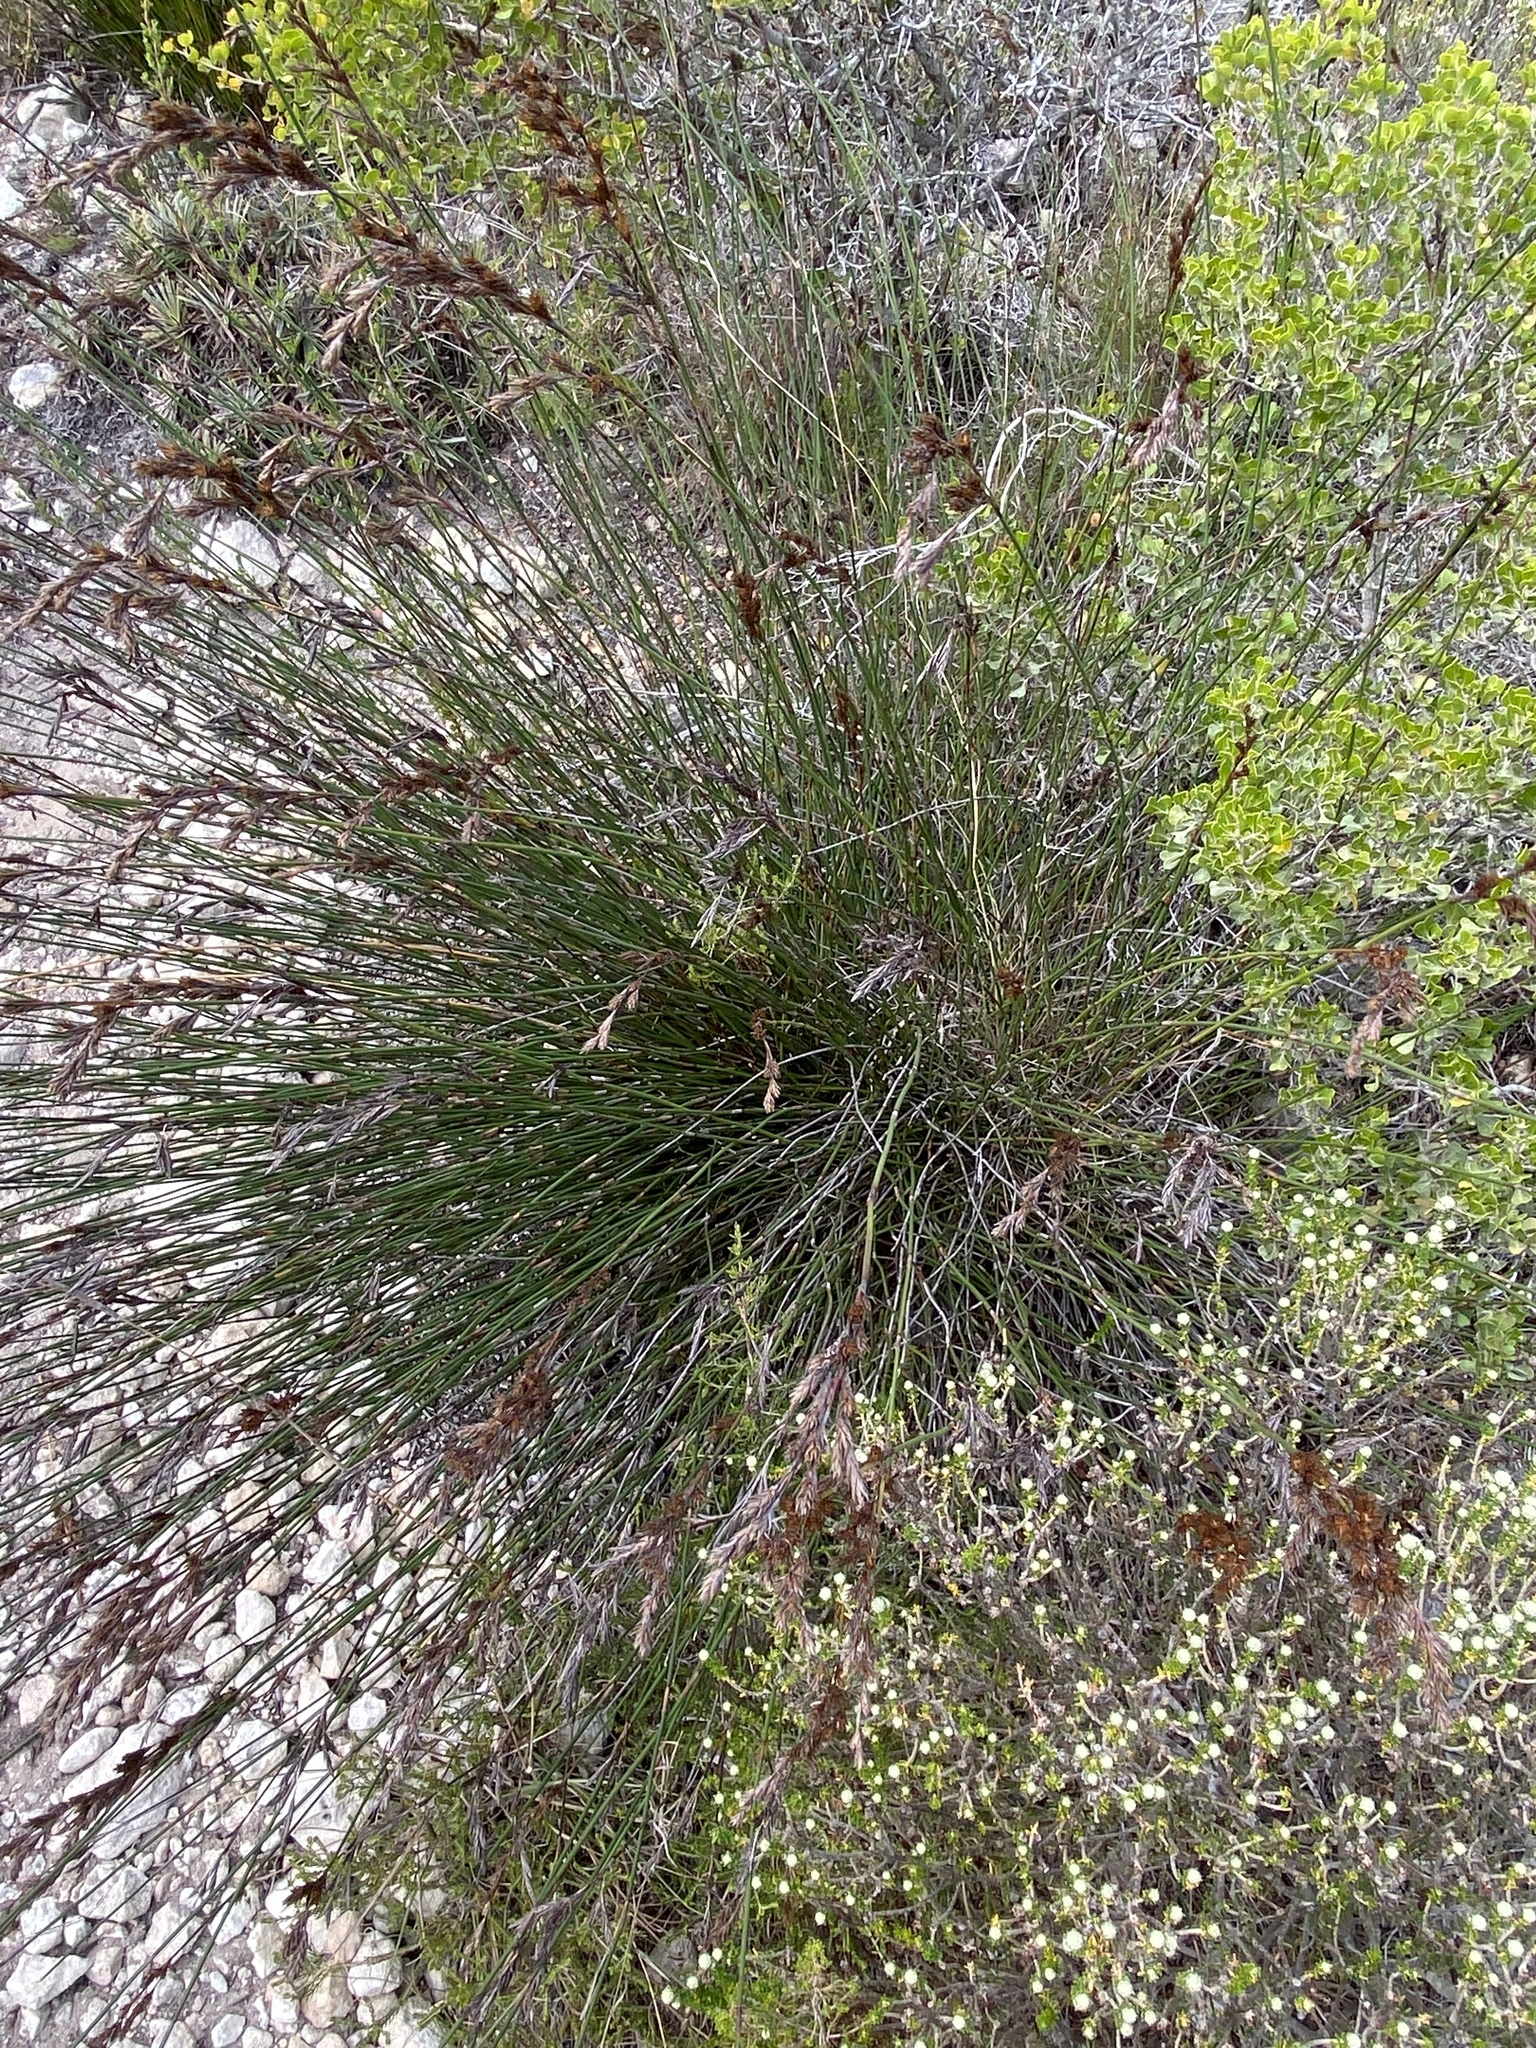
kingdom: Plantae
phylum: Tracheophyta
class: Liliopsida
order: Poales
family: Restionaceae
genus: Thamnochortus
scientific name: Thamnochortus insignis
